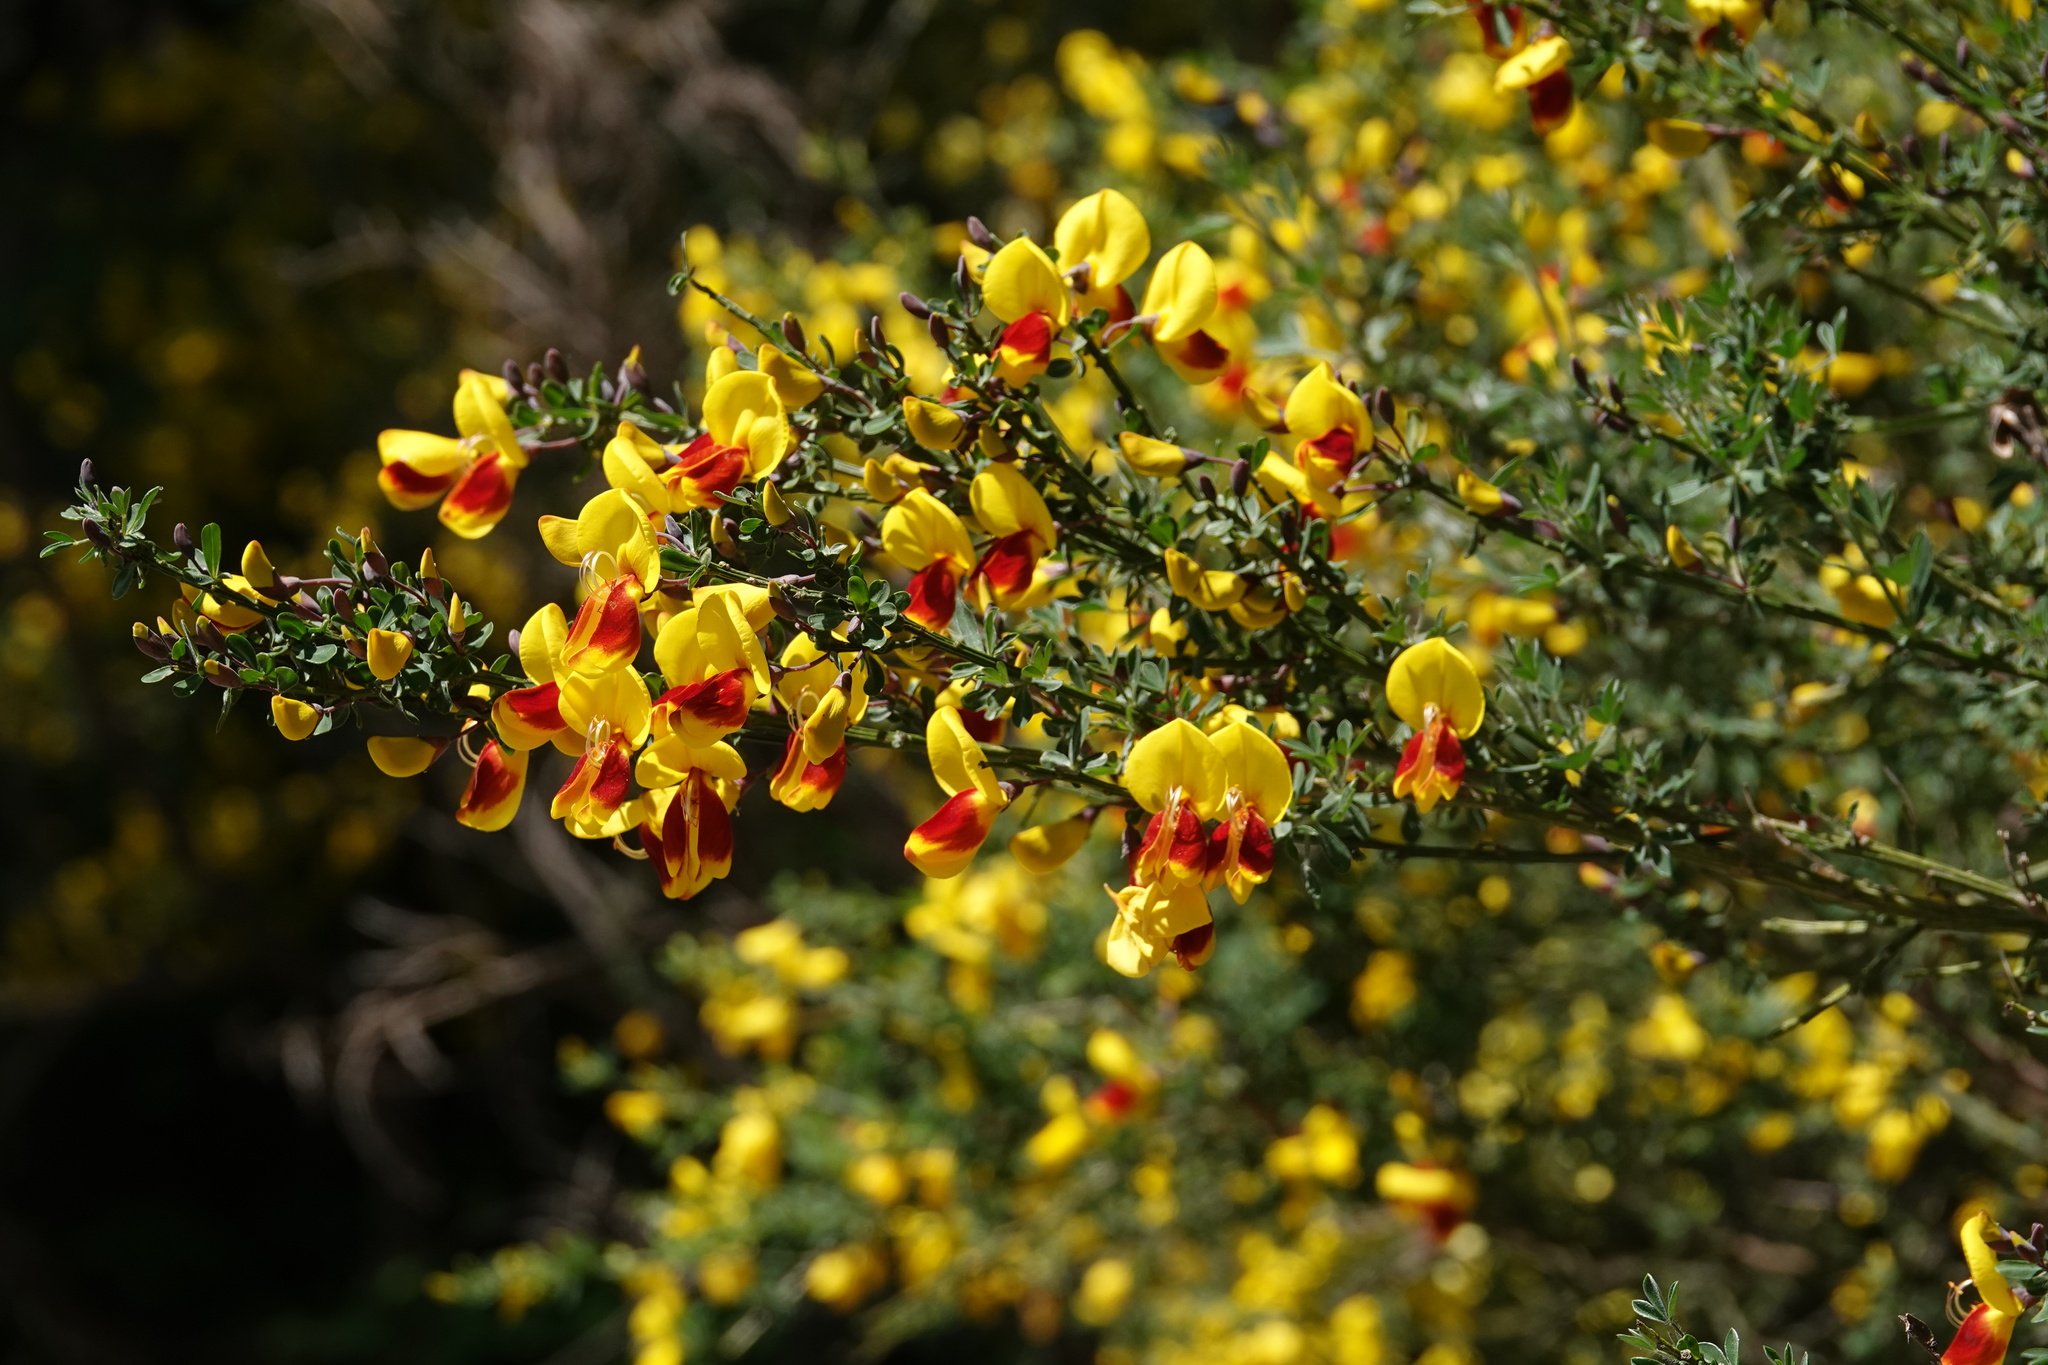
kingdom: Plantae
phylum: Tracheophyta
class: Magnoliopsida
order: Fabales
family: Fabaceae
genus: Cytisus
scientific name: Cytisus scoparius
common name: Scotch broom
